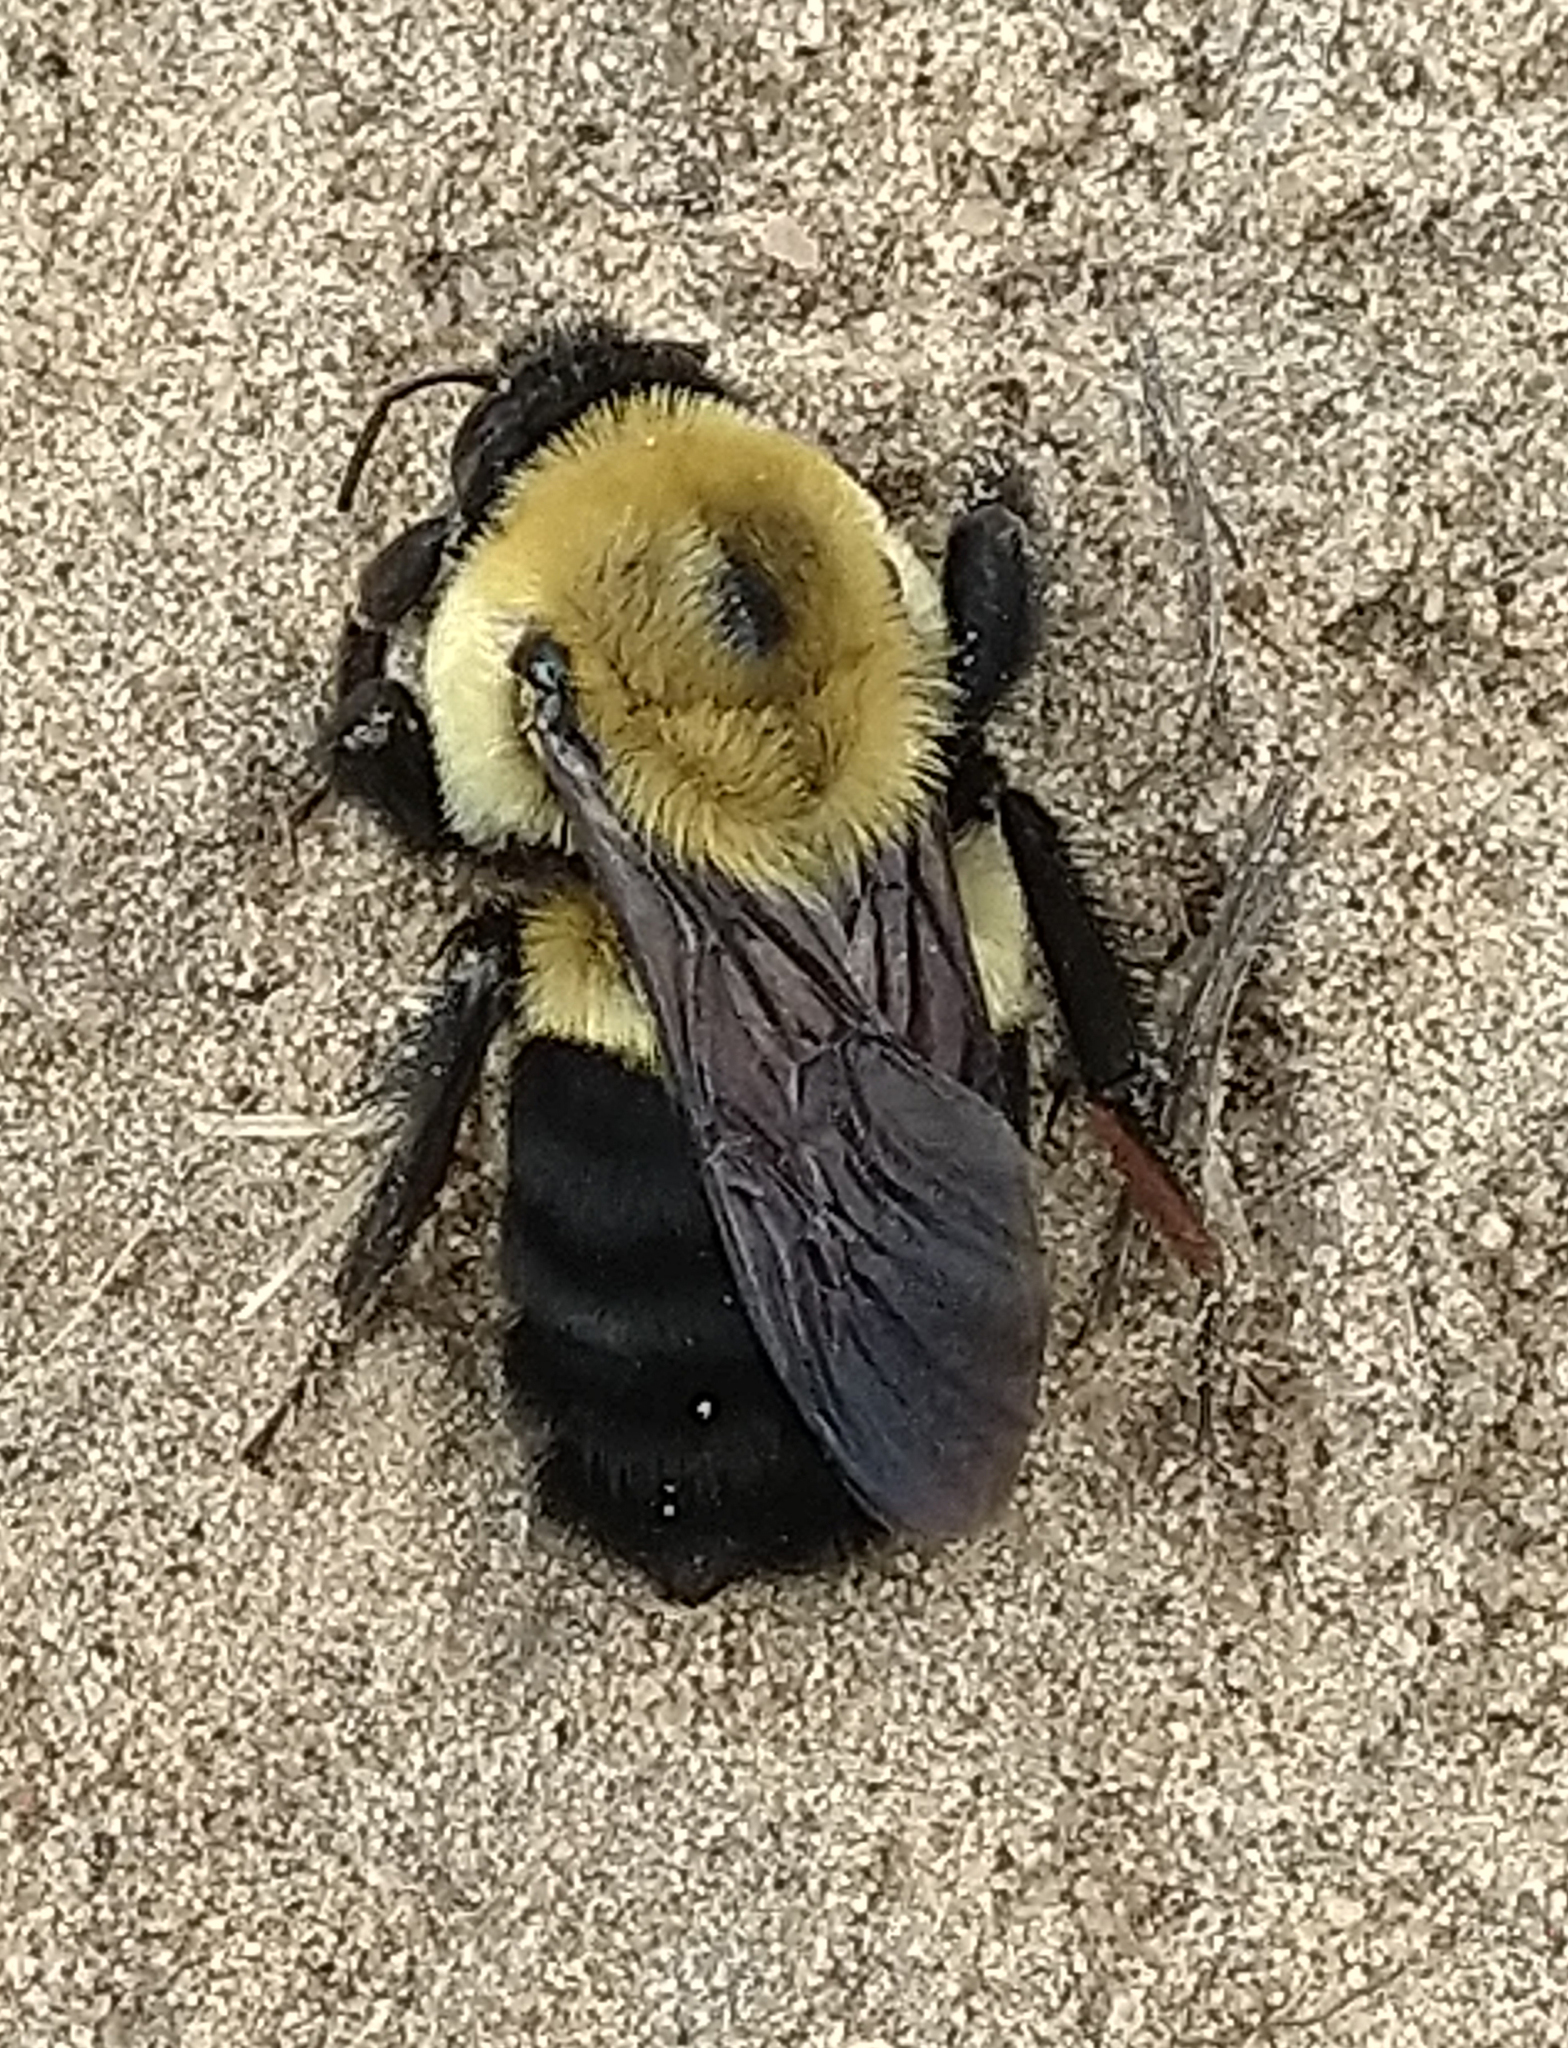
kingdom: Animalia
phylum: Arthropoda
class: Insecta
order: Hymenoptera
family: Apidae
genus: Bombus
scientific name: Bombus griseocollis
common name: Brown-belted bumble bee
